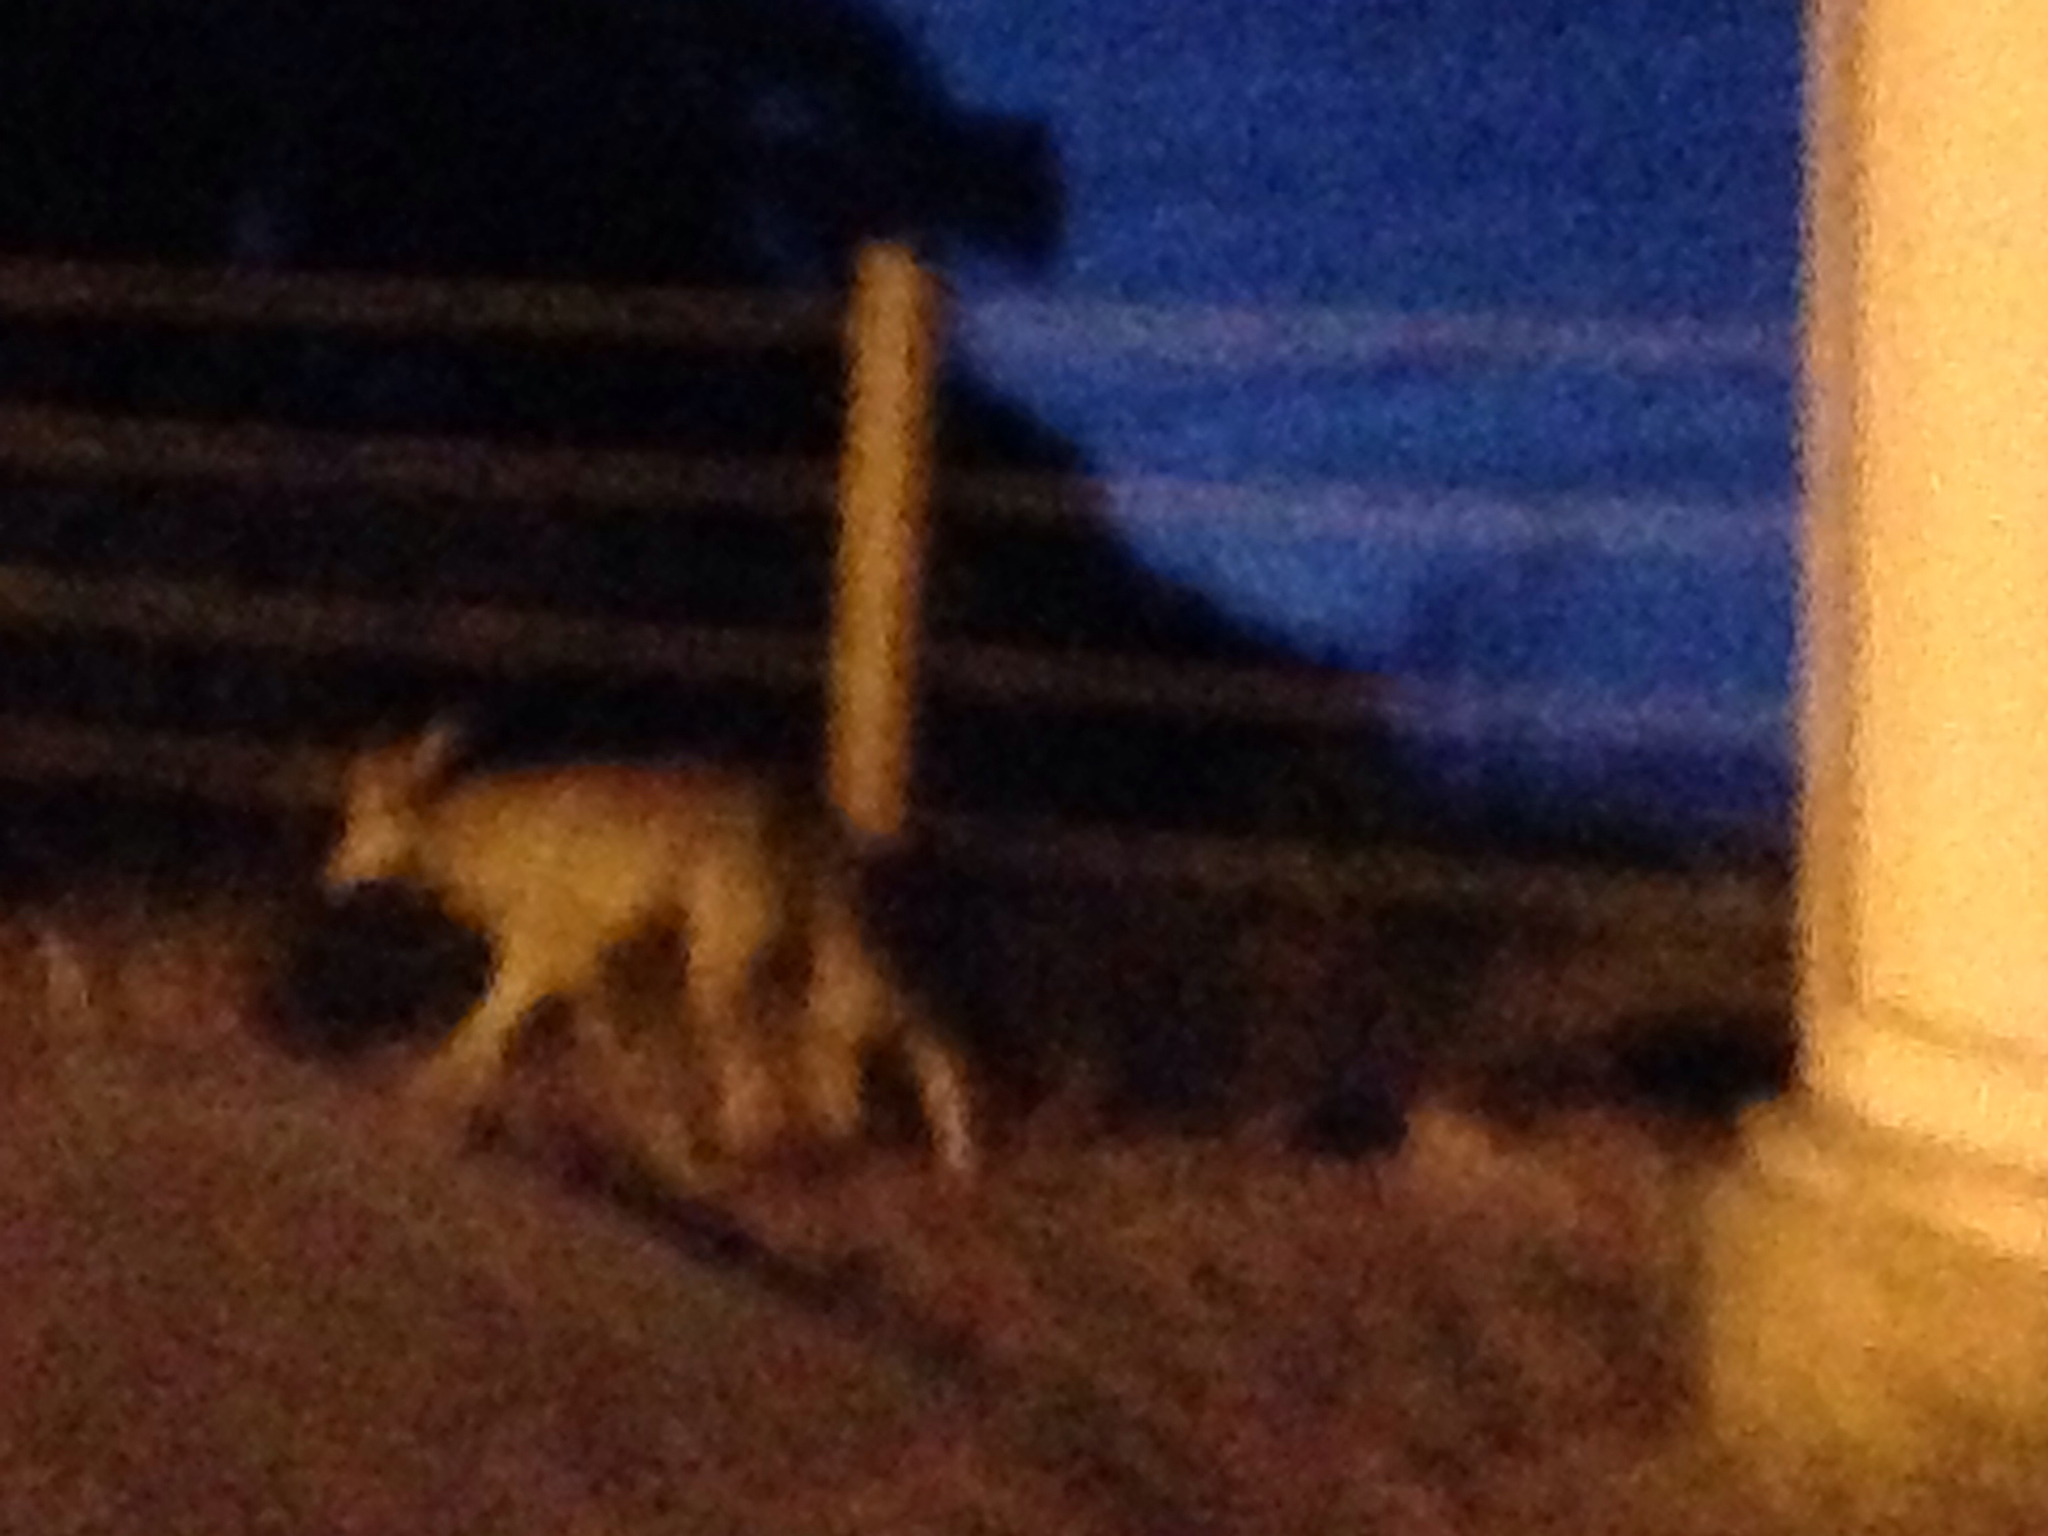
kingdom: Animalia
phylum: Chordata
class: Mammalia
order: Carnivora
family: Canidae
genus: Canis
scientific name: Canis latrans
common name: Coyote
